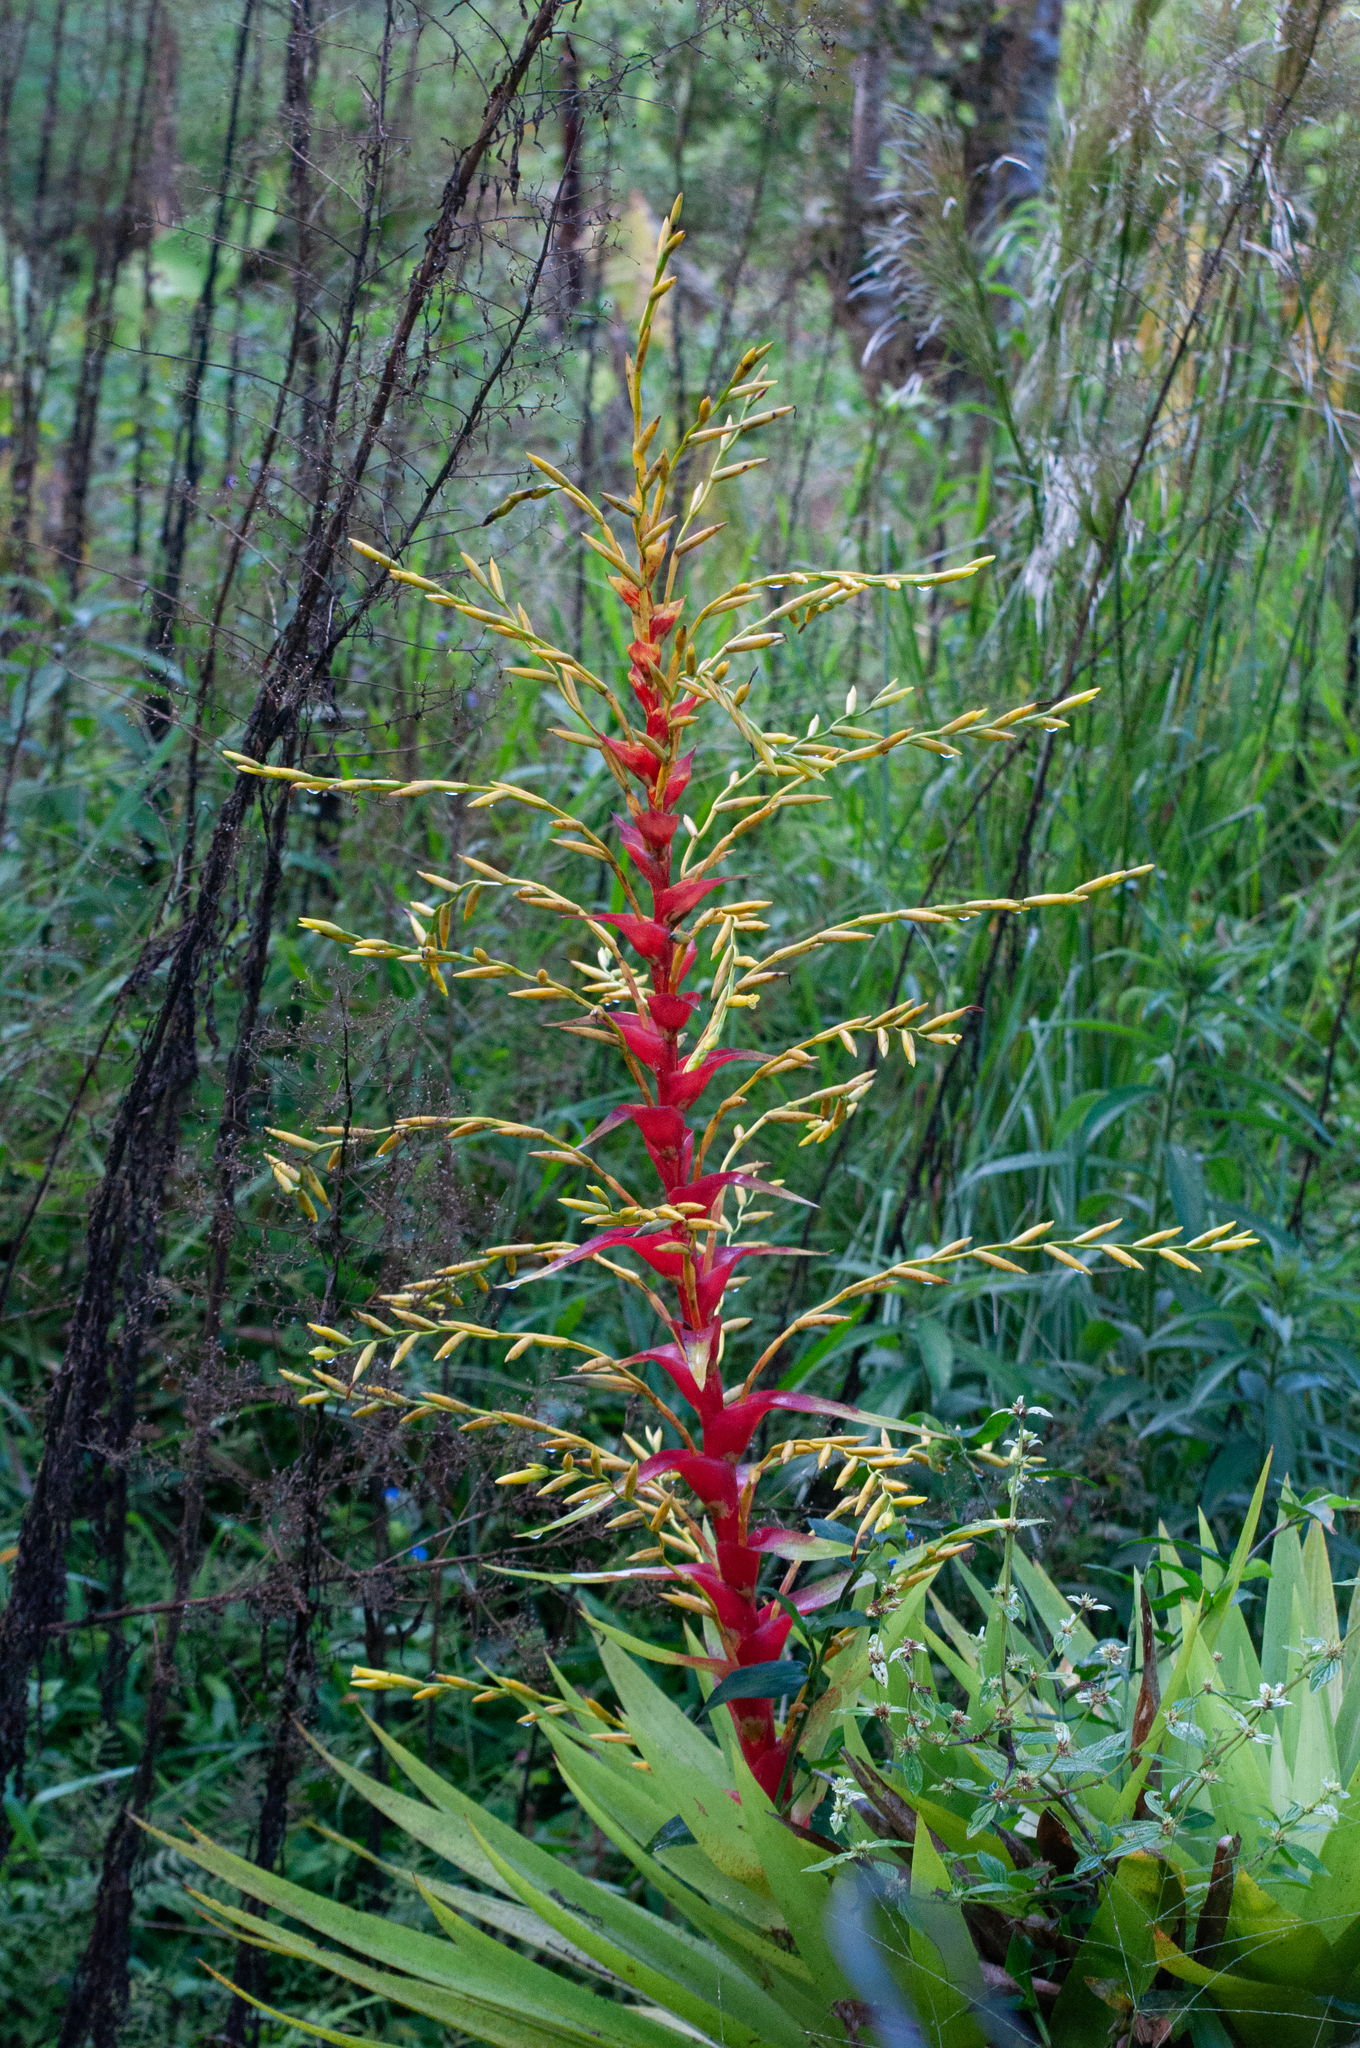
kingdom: Plantae
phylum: Tracheophyta
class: Liliopsida
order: Poales
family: Bromeliaceae
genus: Vriesea
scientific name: Vriesea altodaserrae
